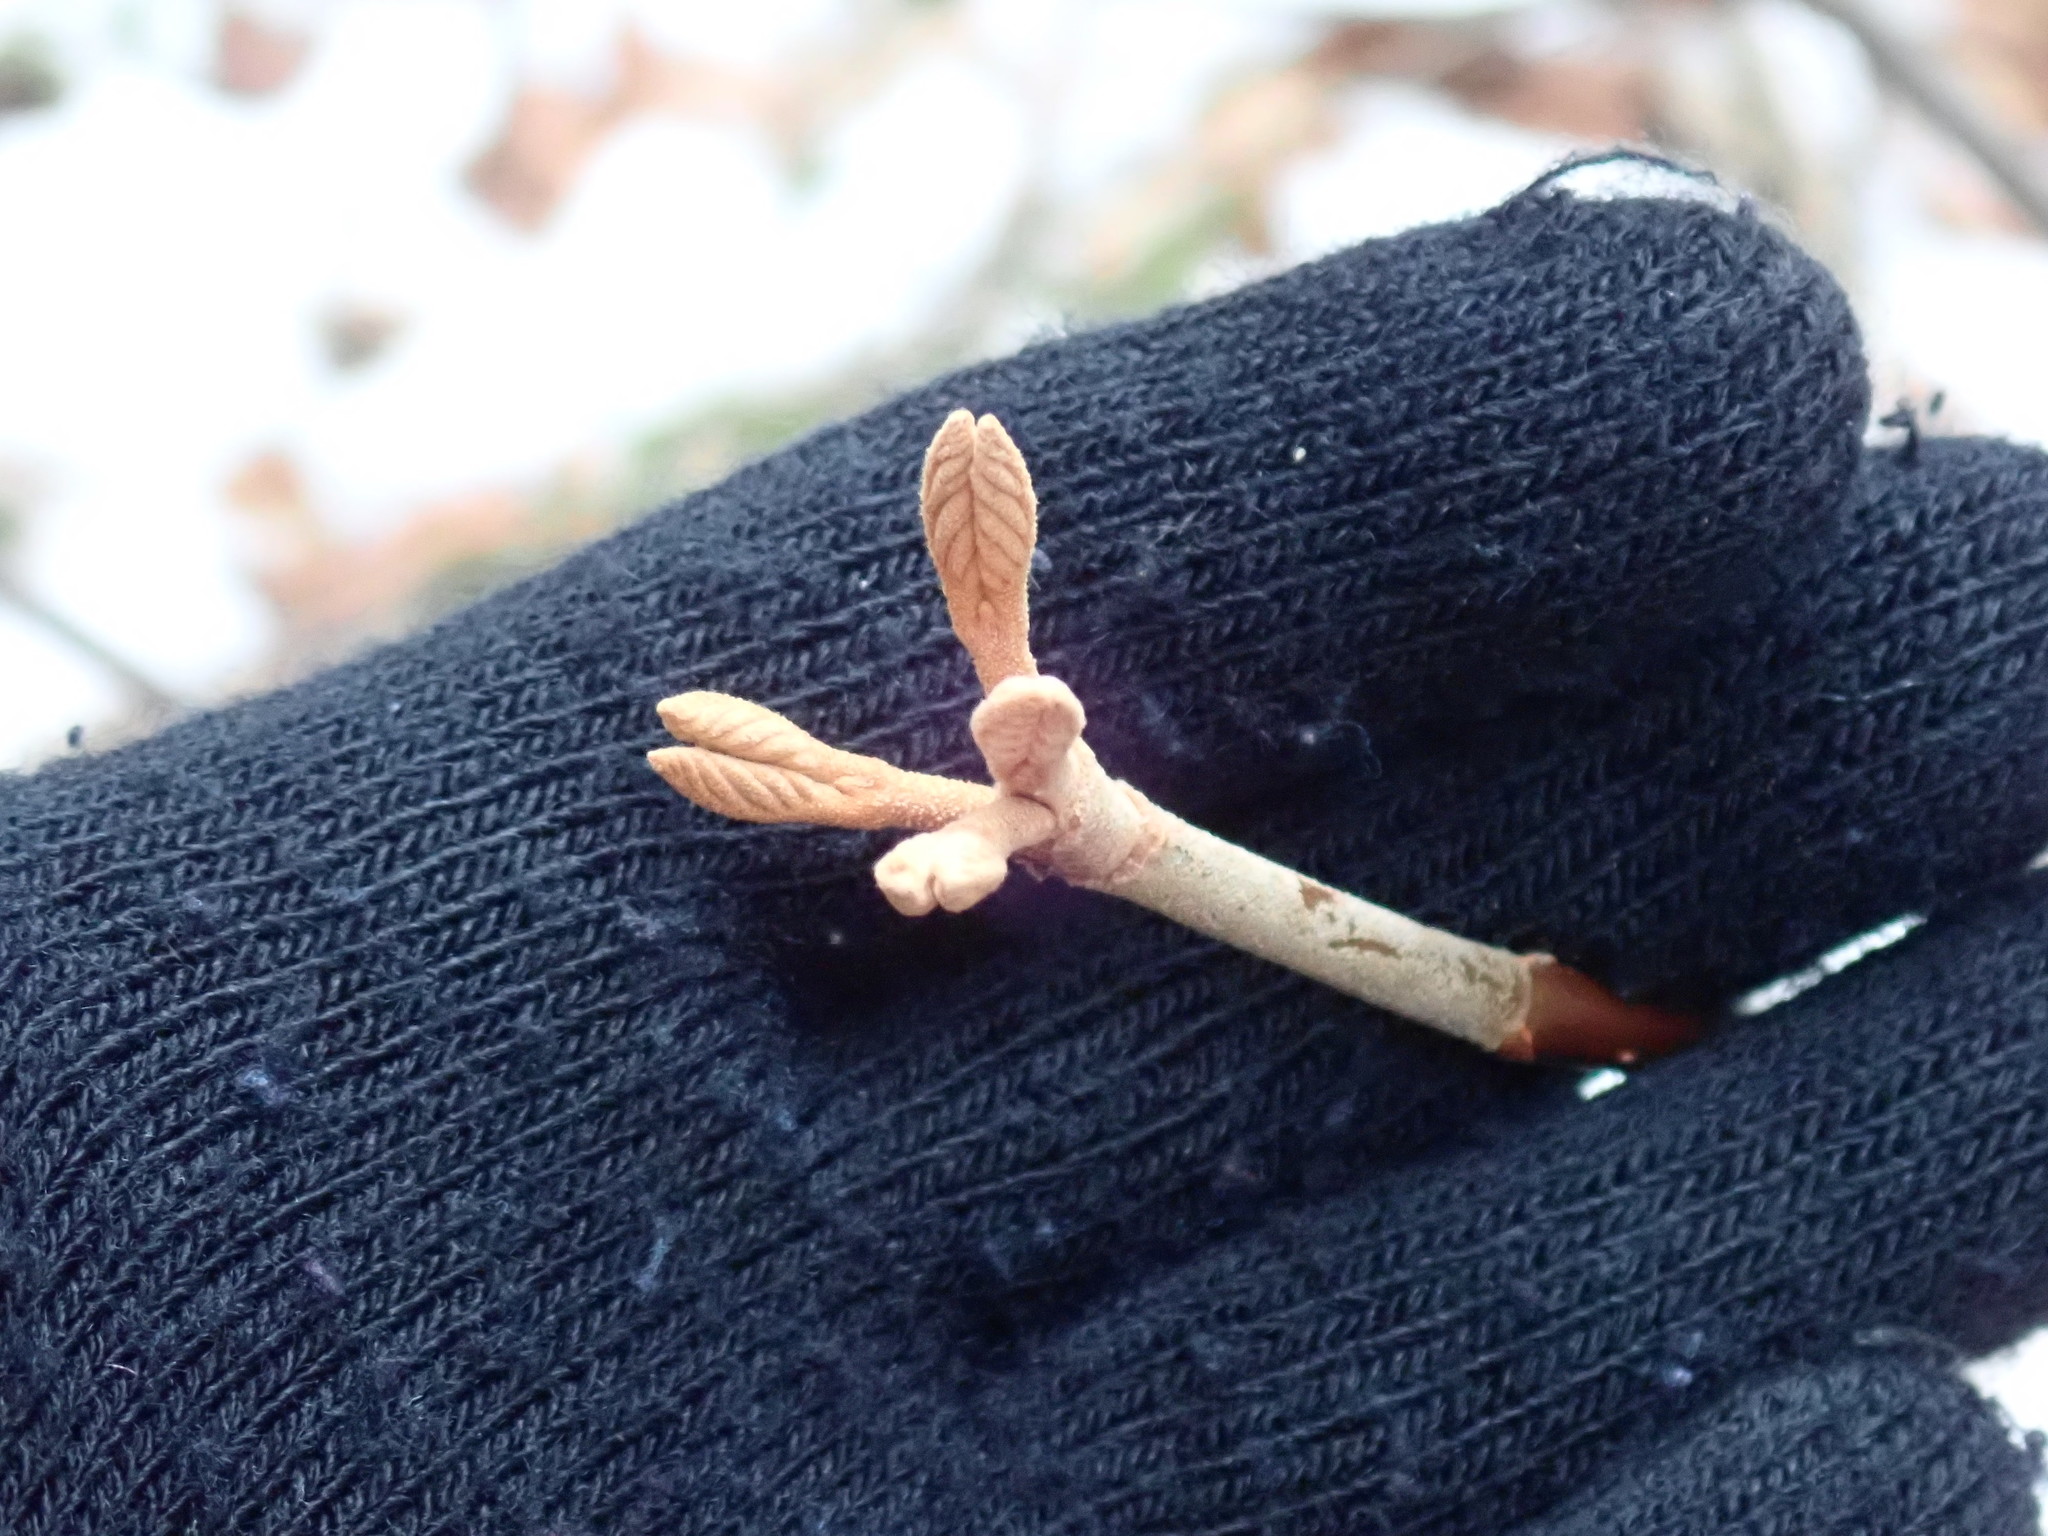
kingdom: Plantae
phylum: Tracheophyta
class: Magnoliopsida
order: Dipsacales
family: Viburnaceae
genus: Viburnum
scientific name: Viburnum lantanoides
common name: Hobblebush
